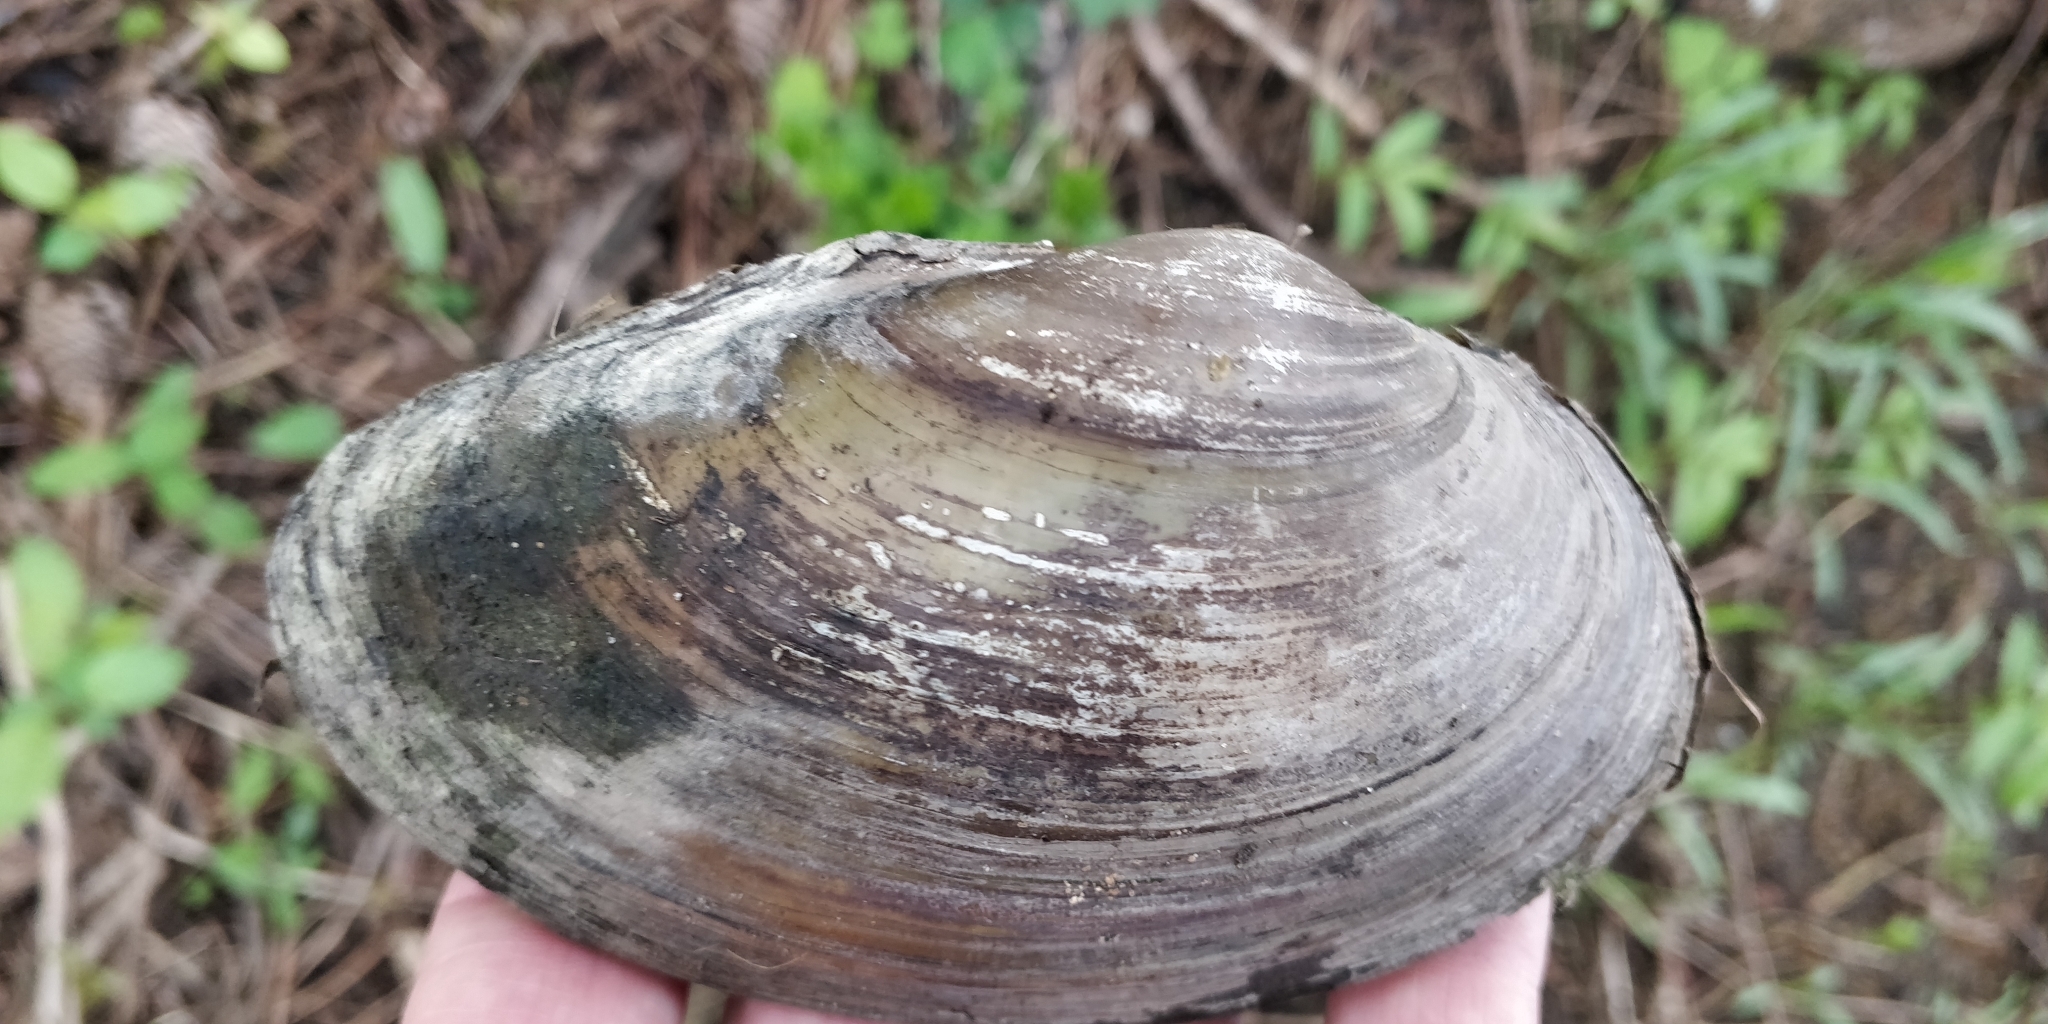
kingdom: Animalia
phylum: Mollusca
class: Bivalvia
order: Unionida
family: Unionidae
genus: Pyganodon
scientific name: Pyganodon grandis
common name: Giant floater
